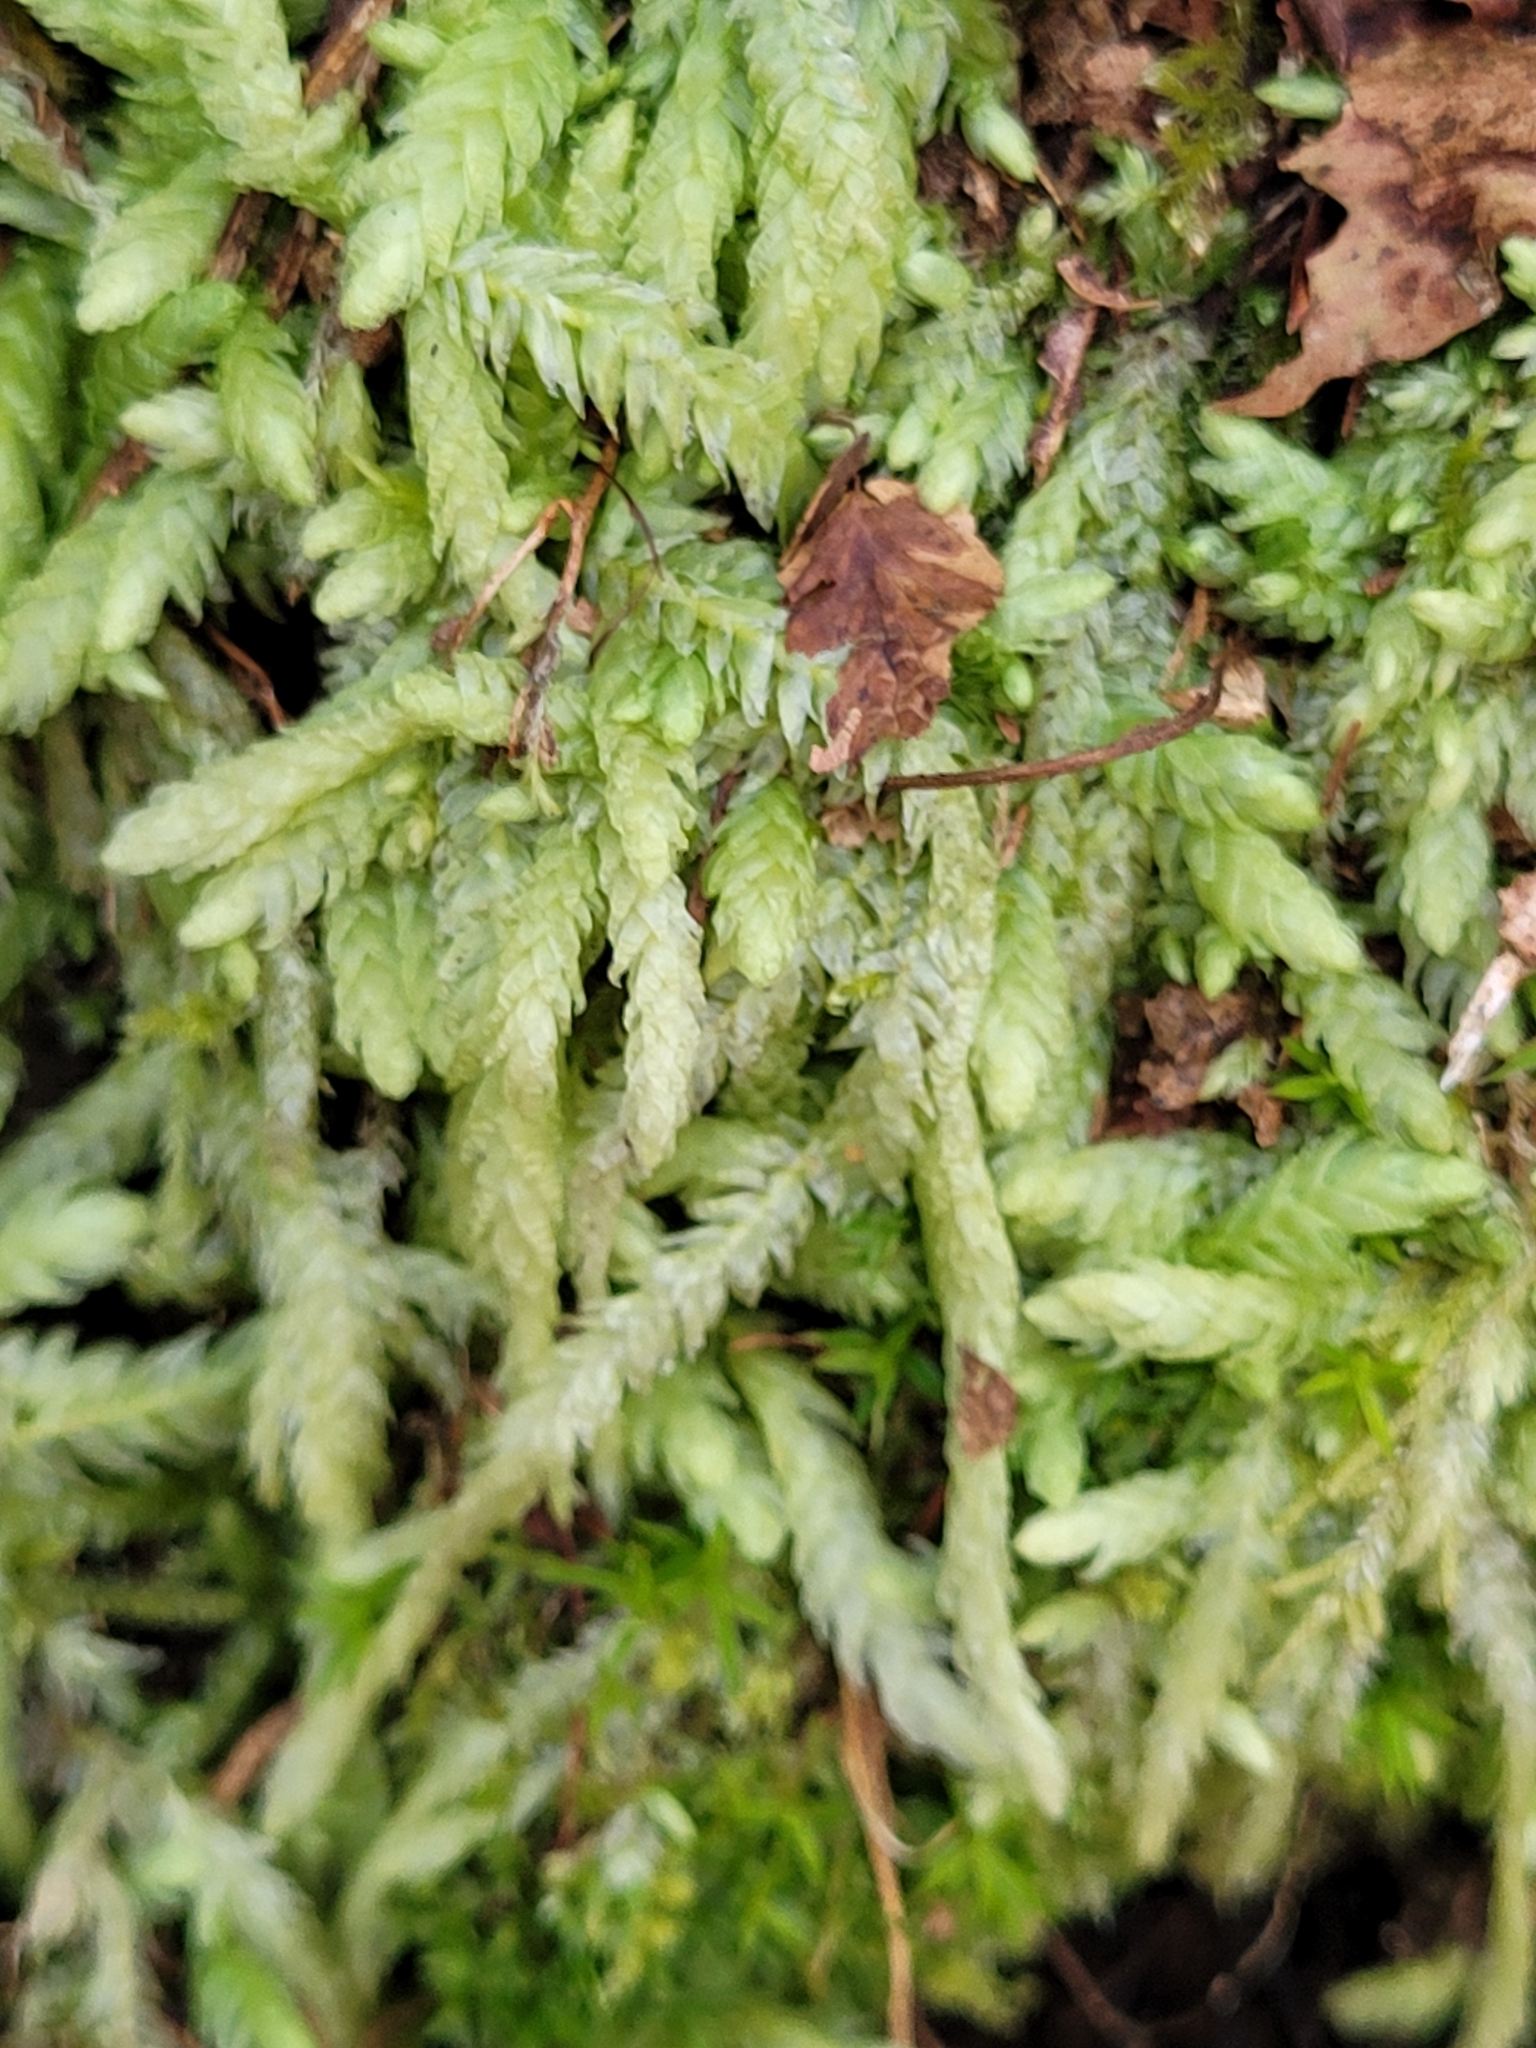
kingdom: Plantae
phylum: Bryophyta
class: Bryopsida
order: Hypnales
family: Plagiotheciaceae
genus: Plagiothecium
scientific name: Plagiothecium undulatum
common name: Waved silk-moss
